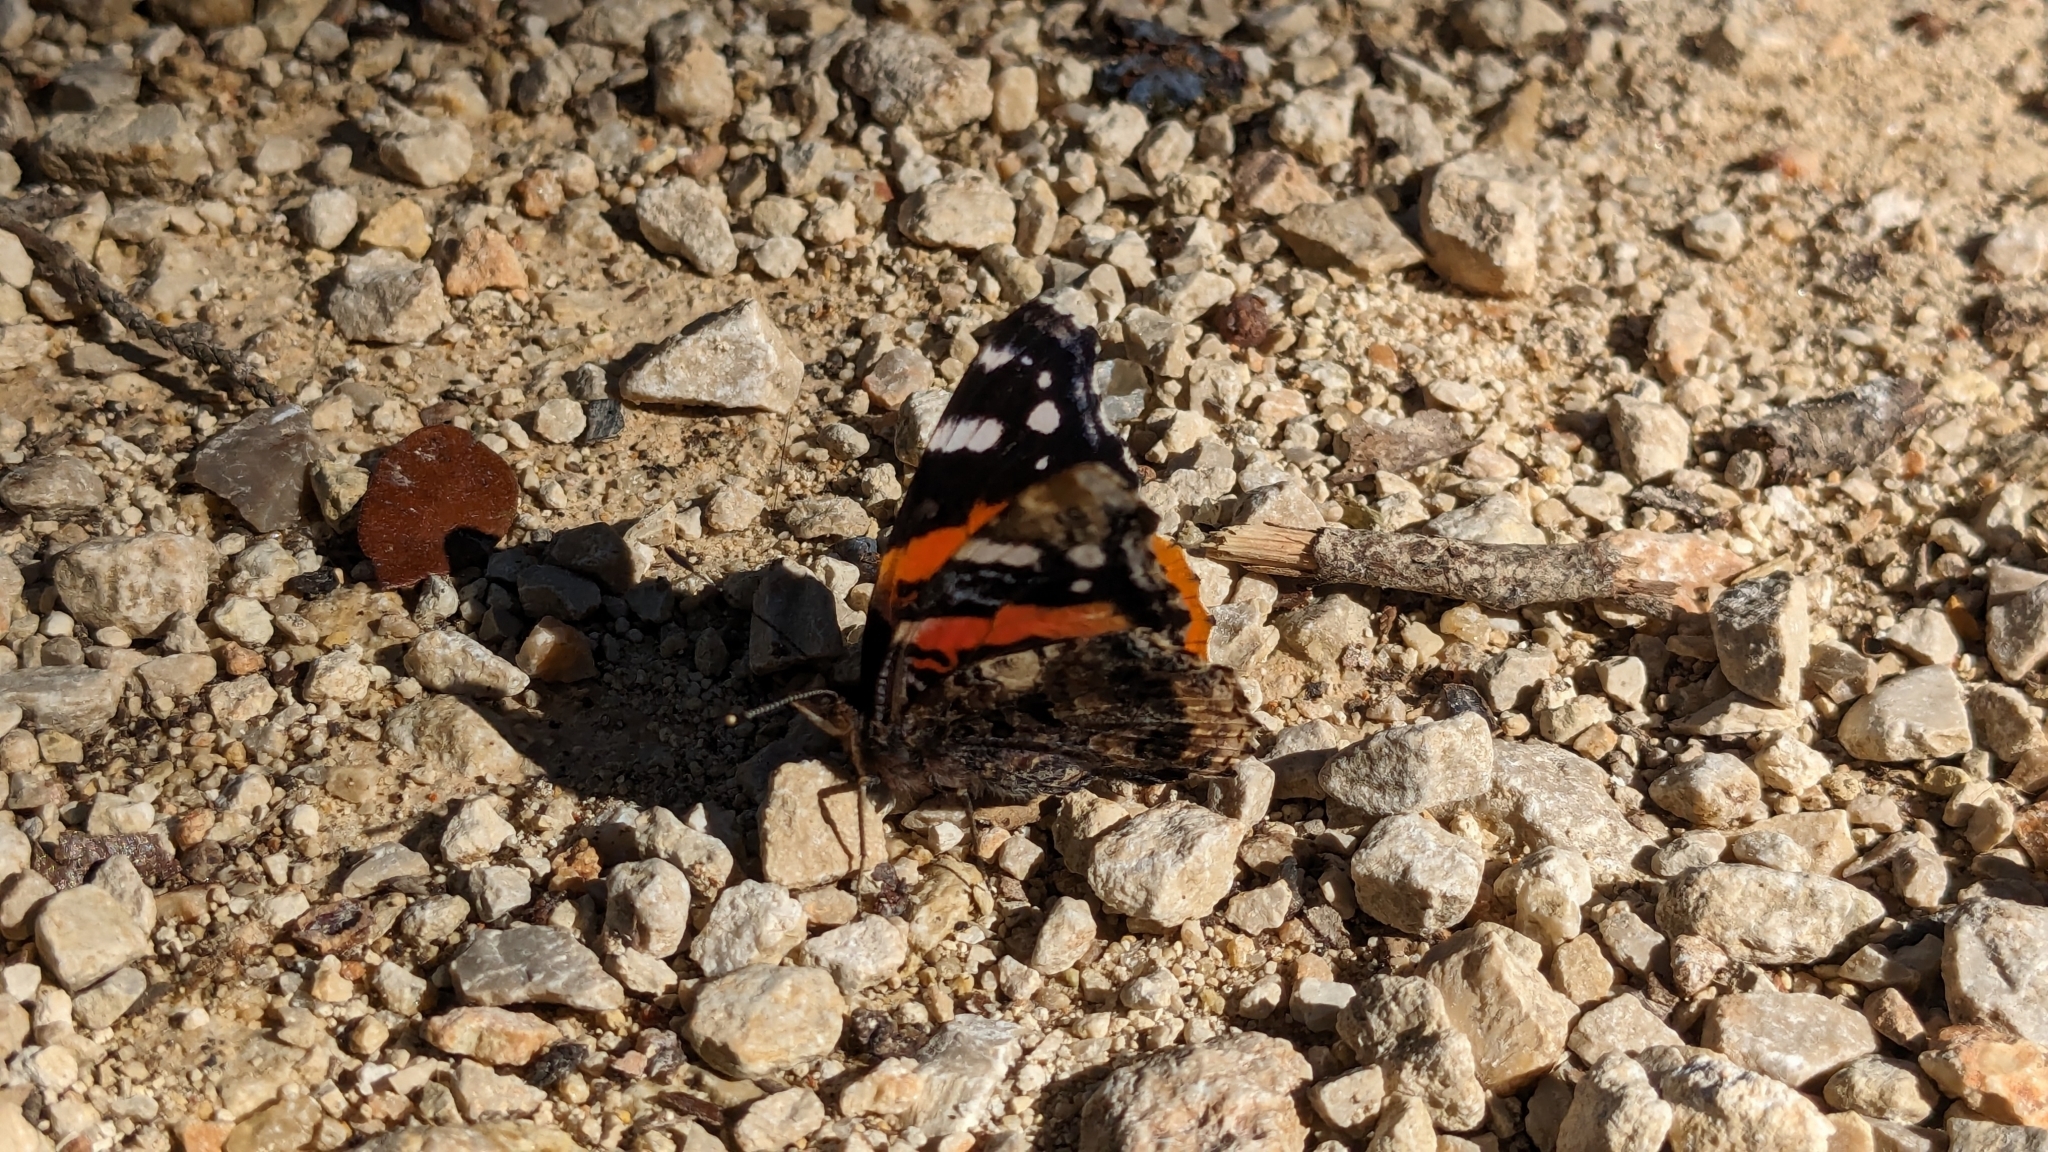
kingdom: Animalia
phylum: Arthropoda
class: Insecta
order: Lepidoptera
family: Nymphalidae
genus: Vanessa
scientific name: Vanessa atalanta
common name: Red admiral
